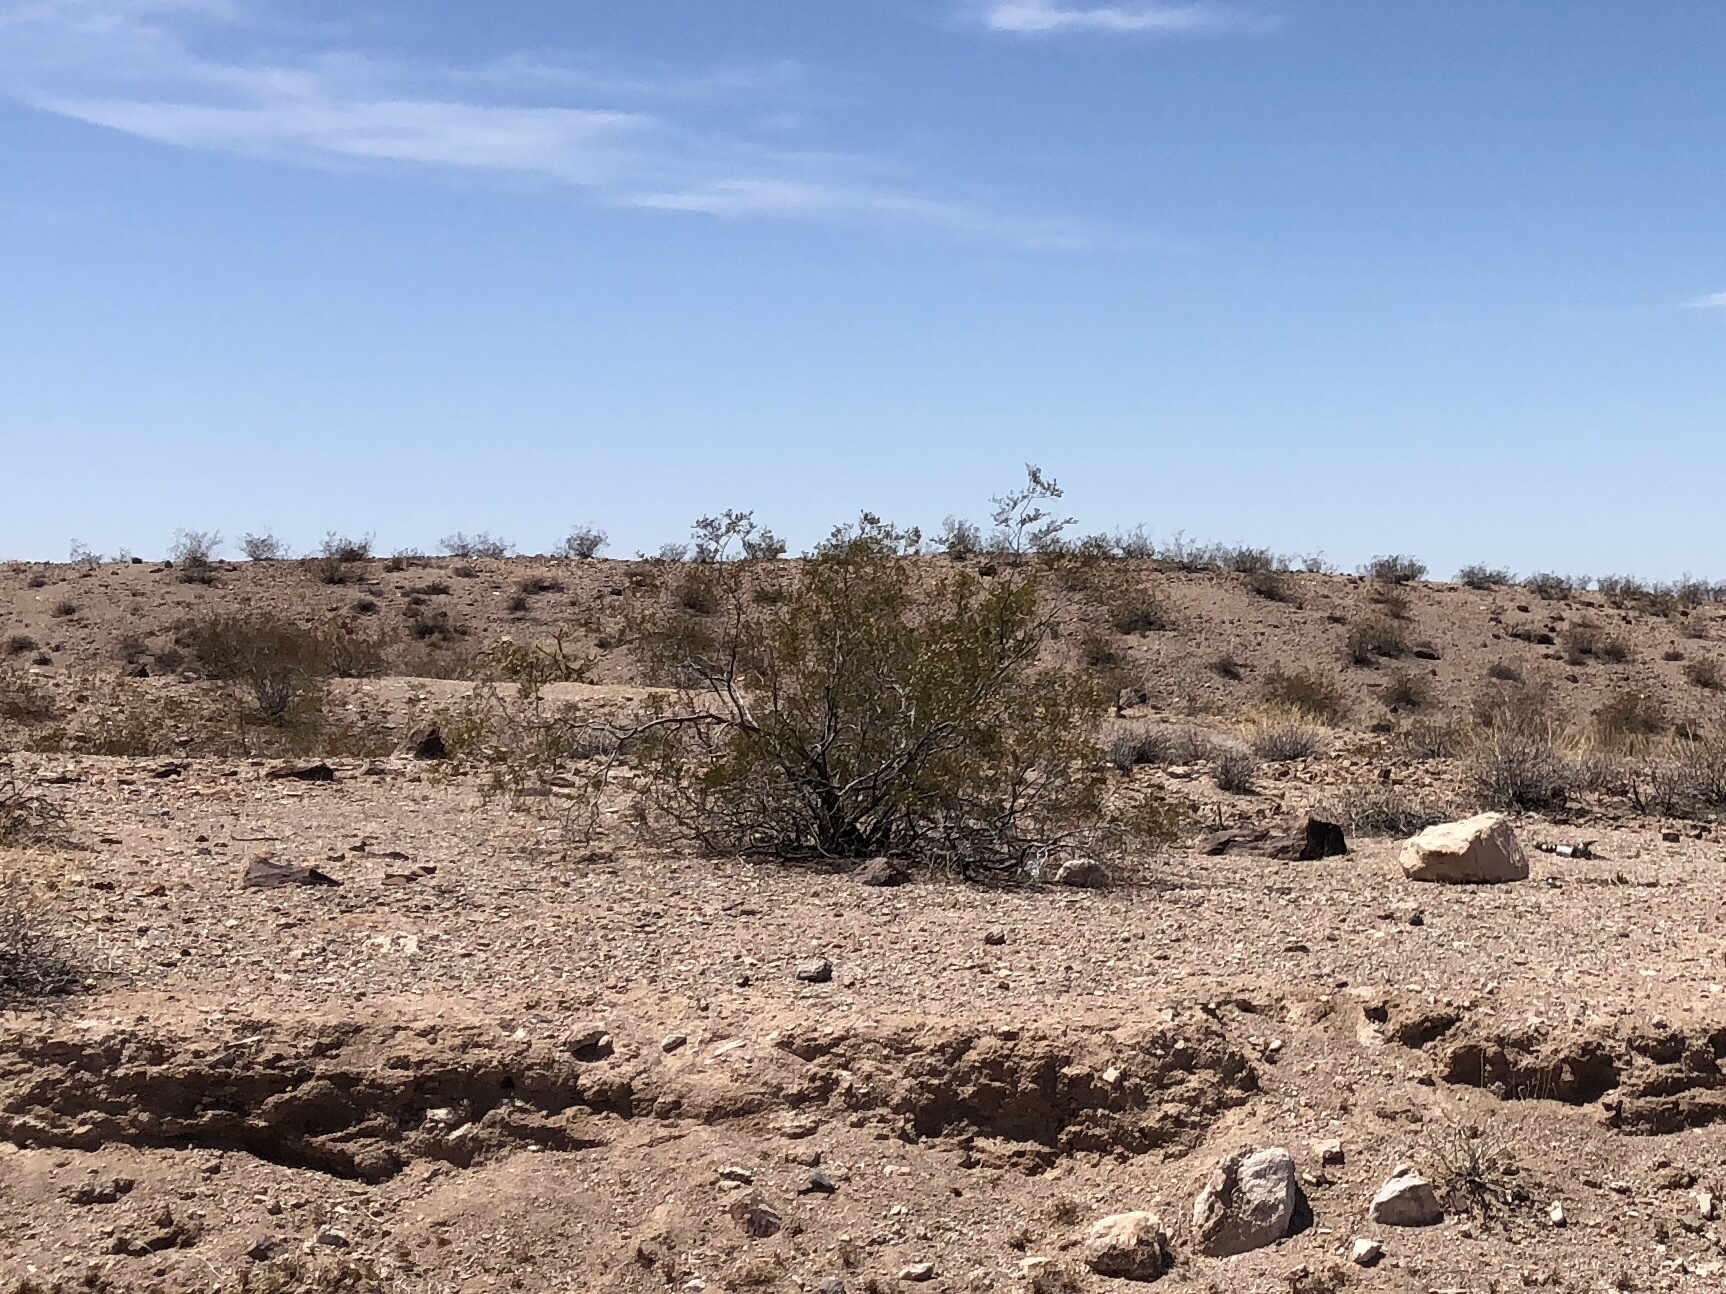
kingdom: Plantae
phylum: Tracheophyta
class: Magnoliopsida
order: Zygophyllales
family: Zygophyllaceae
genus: Larrea
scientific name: Larrea tridentata
